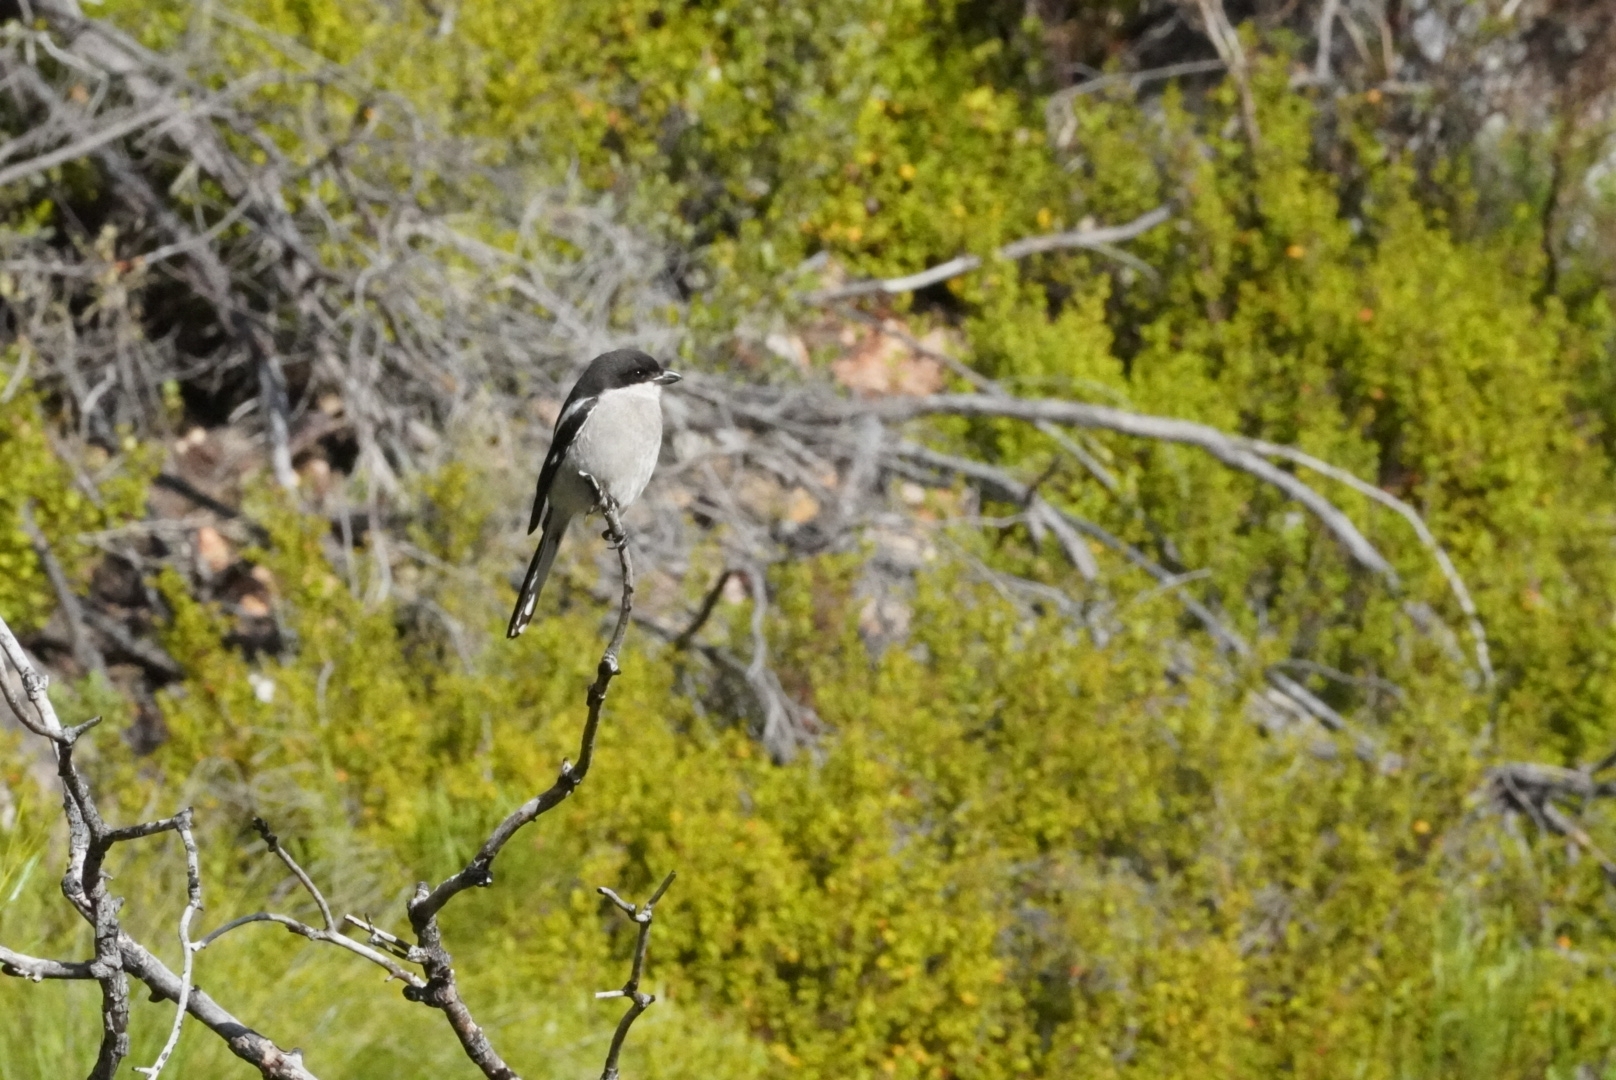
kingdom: Animalia
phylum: Chordata
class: Aves
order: Passeriformes
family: Laniidae
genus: Lanius
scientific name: Lanius collaris
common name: Southern fiscal
